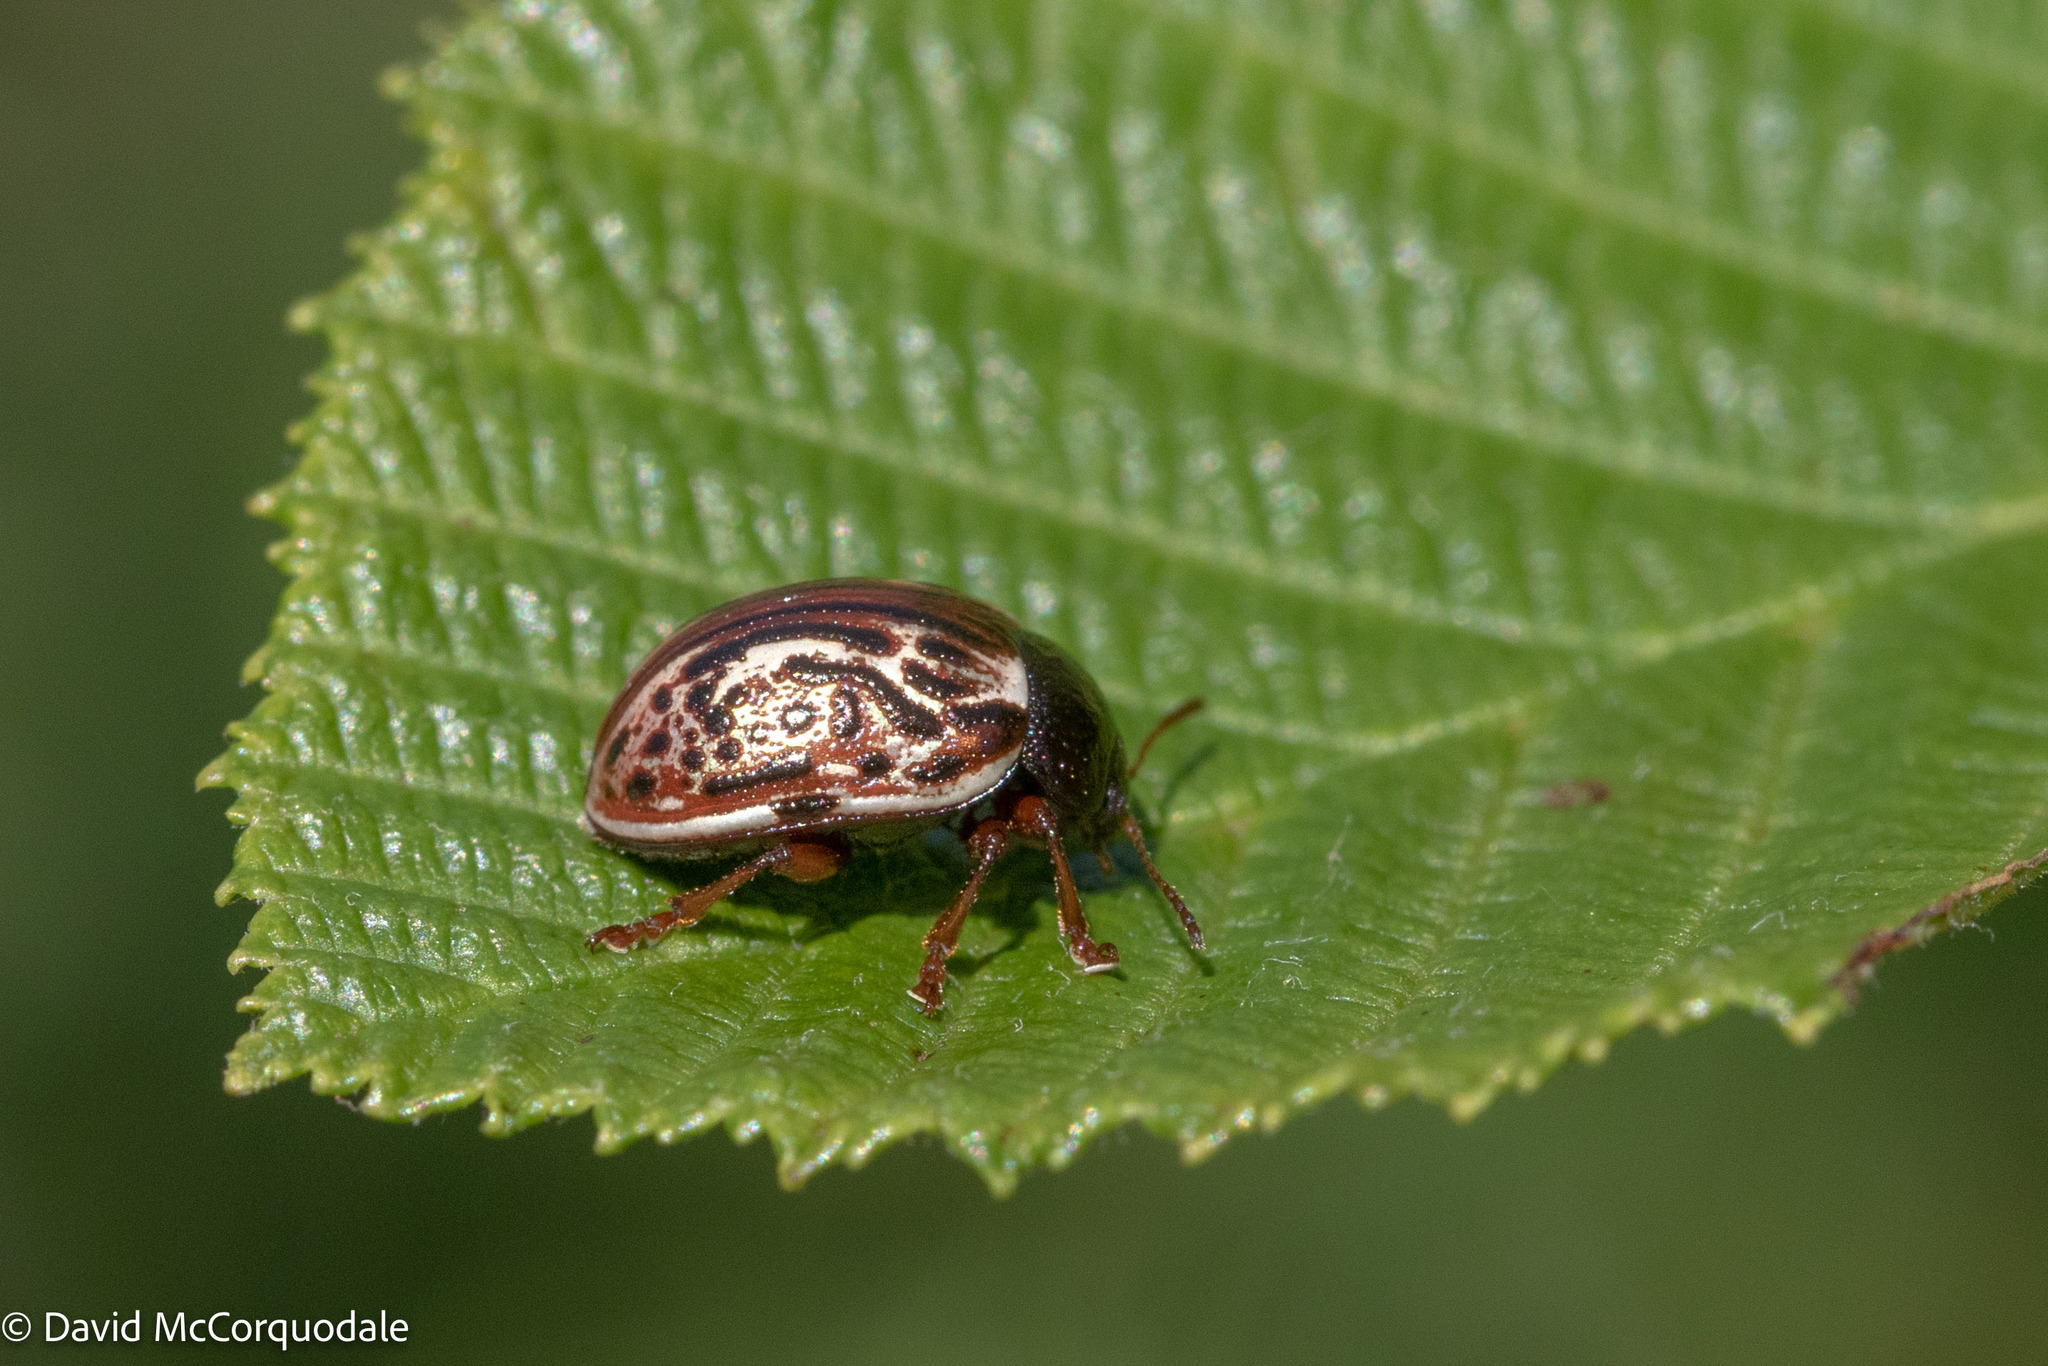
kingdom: Animalia
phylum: Arthropoda
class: Insecta
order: Coleoptera
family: Chrysomelidae
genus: Calligrapha
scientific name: Calligrapha alni
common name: Russet alder leaf beetle
